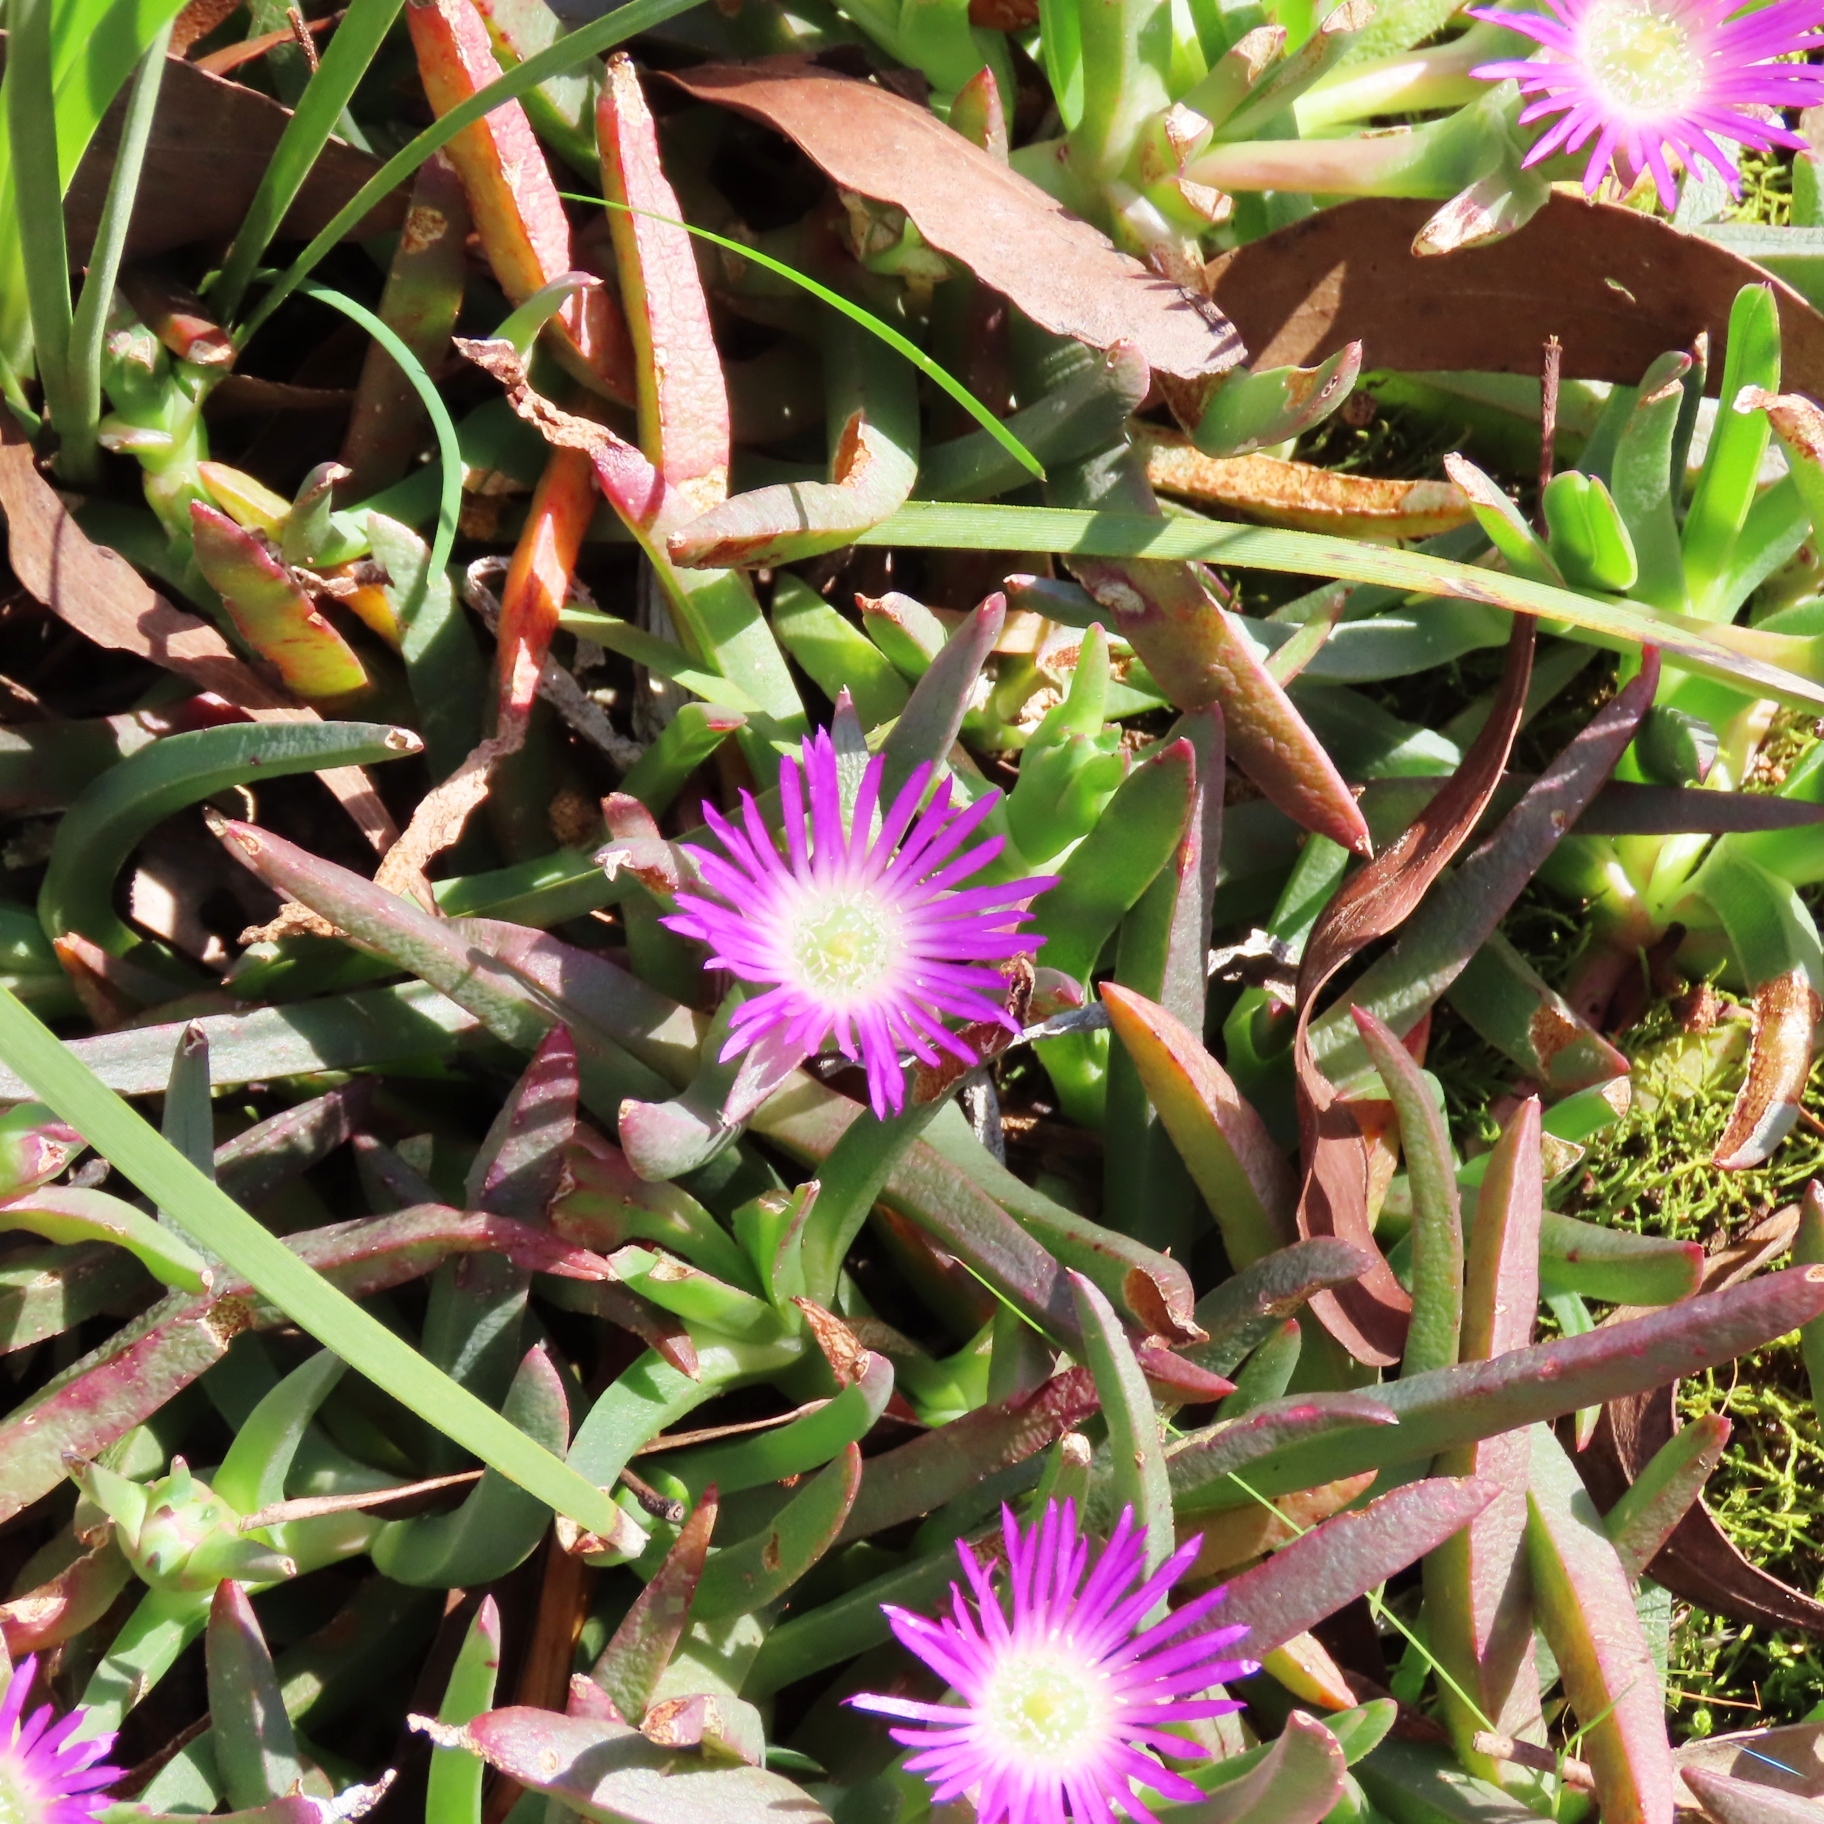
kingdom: Plantae
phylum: Tracheophyta
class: Magnoliopsida
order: Caryophyllales
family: Aizoaceae
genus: Carpobrotus
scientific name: Carpobrotus modestus
